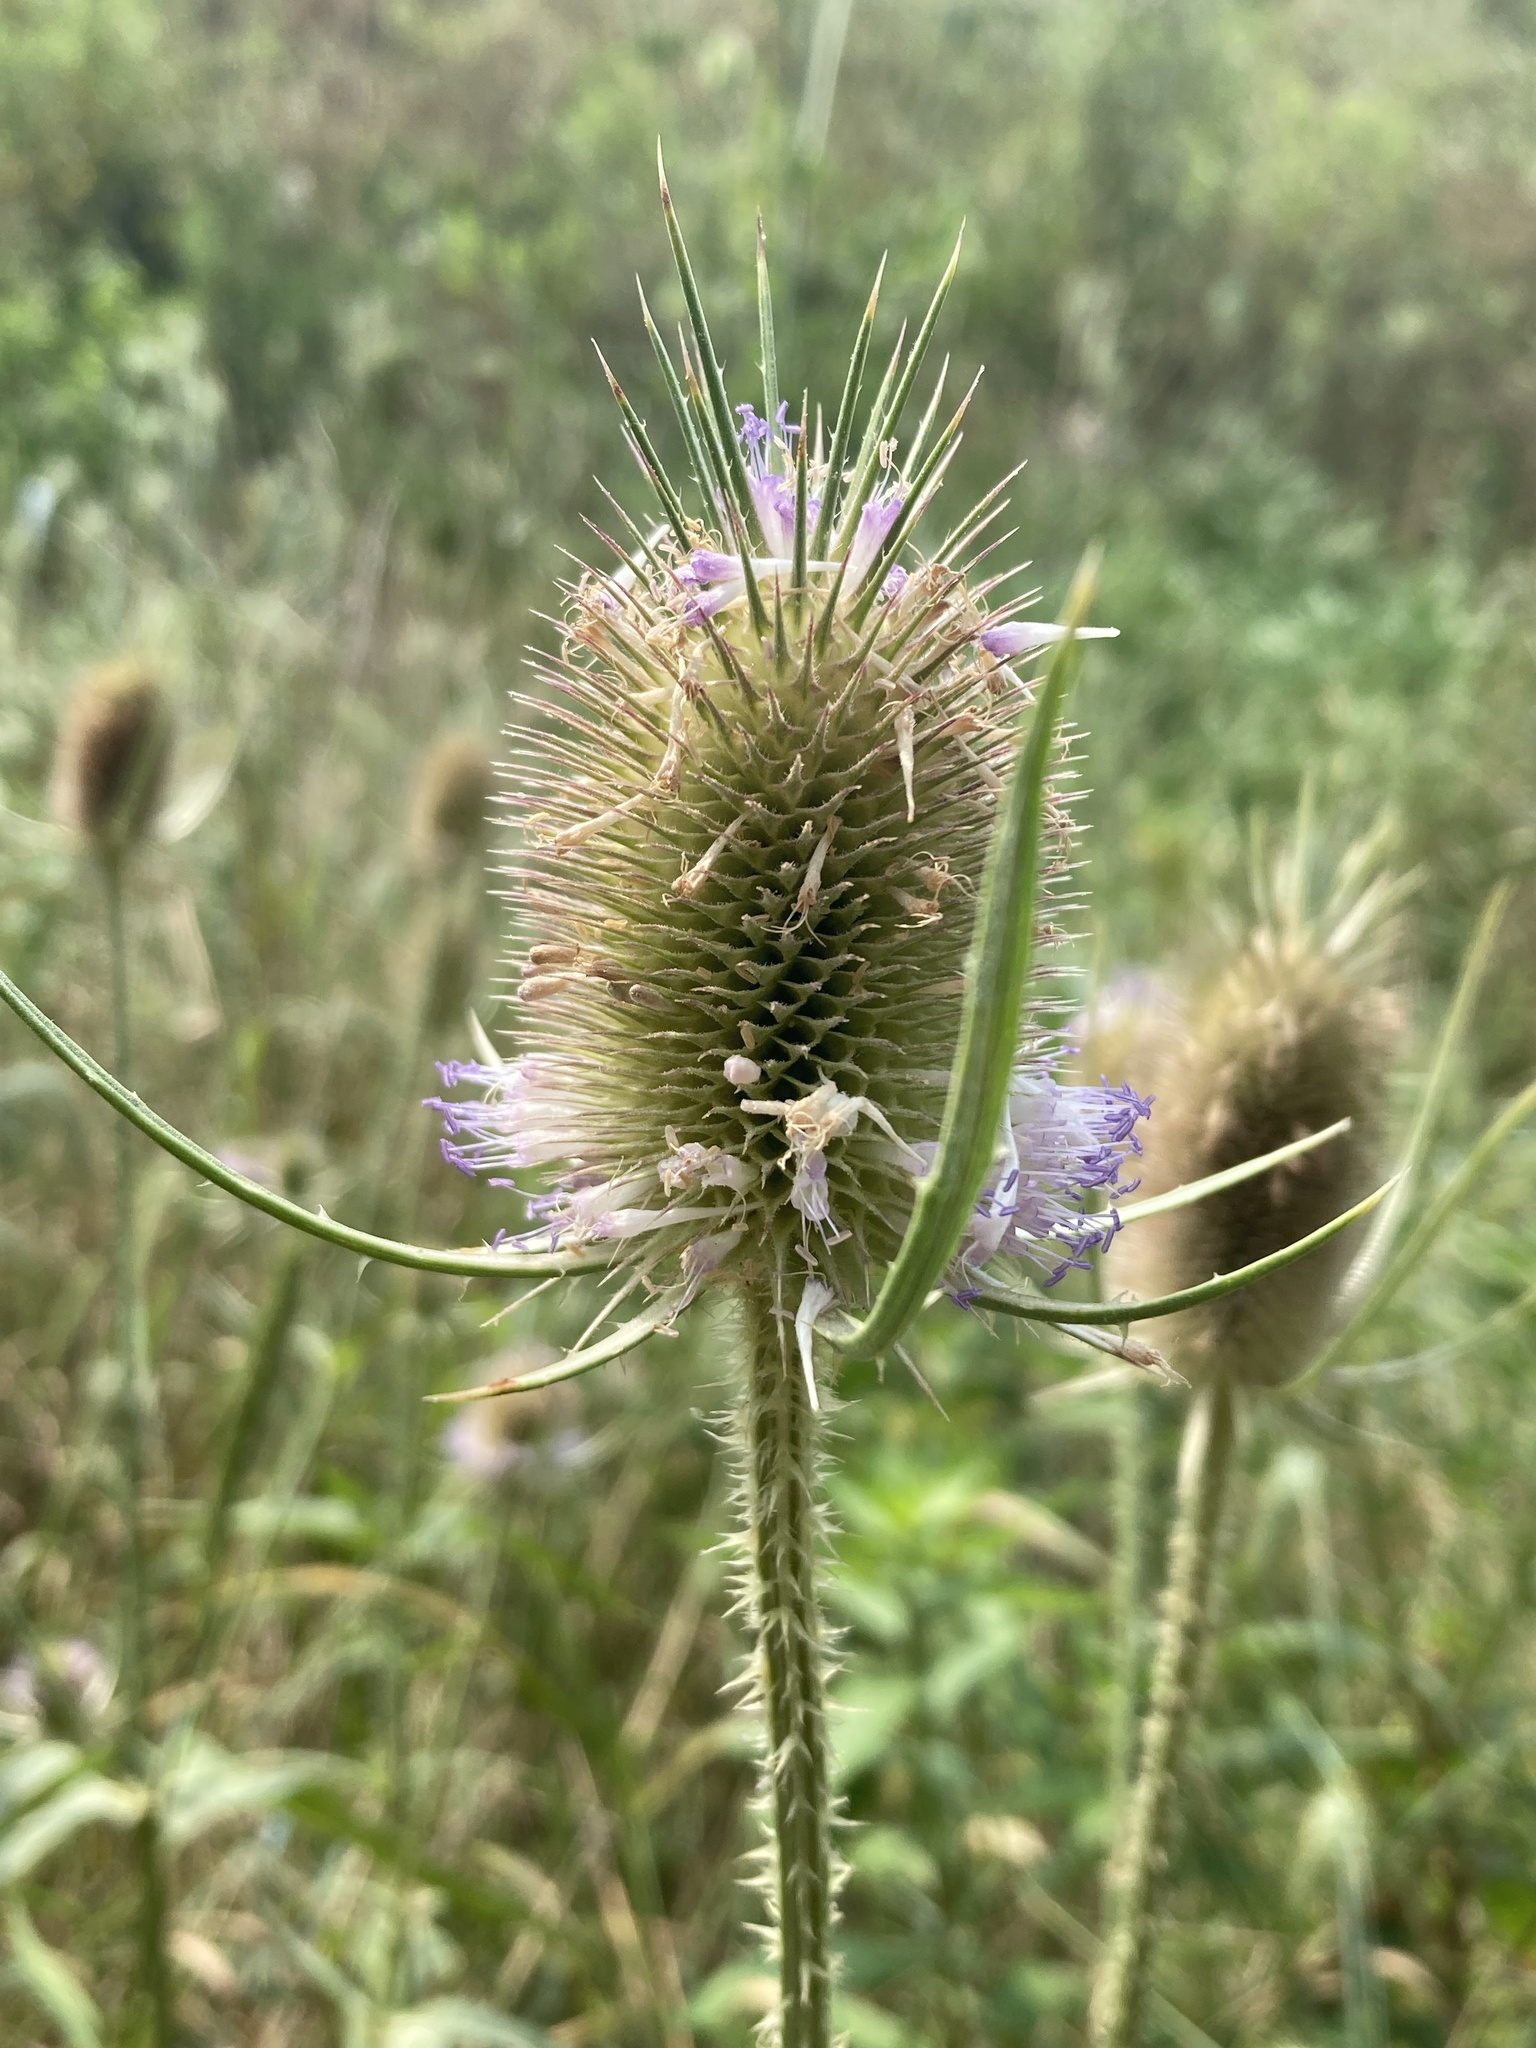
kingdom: Plantae
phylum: Tracheophyta
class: Magnoliopsida
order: Dipsacales
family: Caprifoliaceae
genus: Dipsacus
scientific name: Dipsacus fullonum
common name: Teasel
